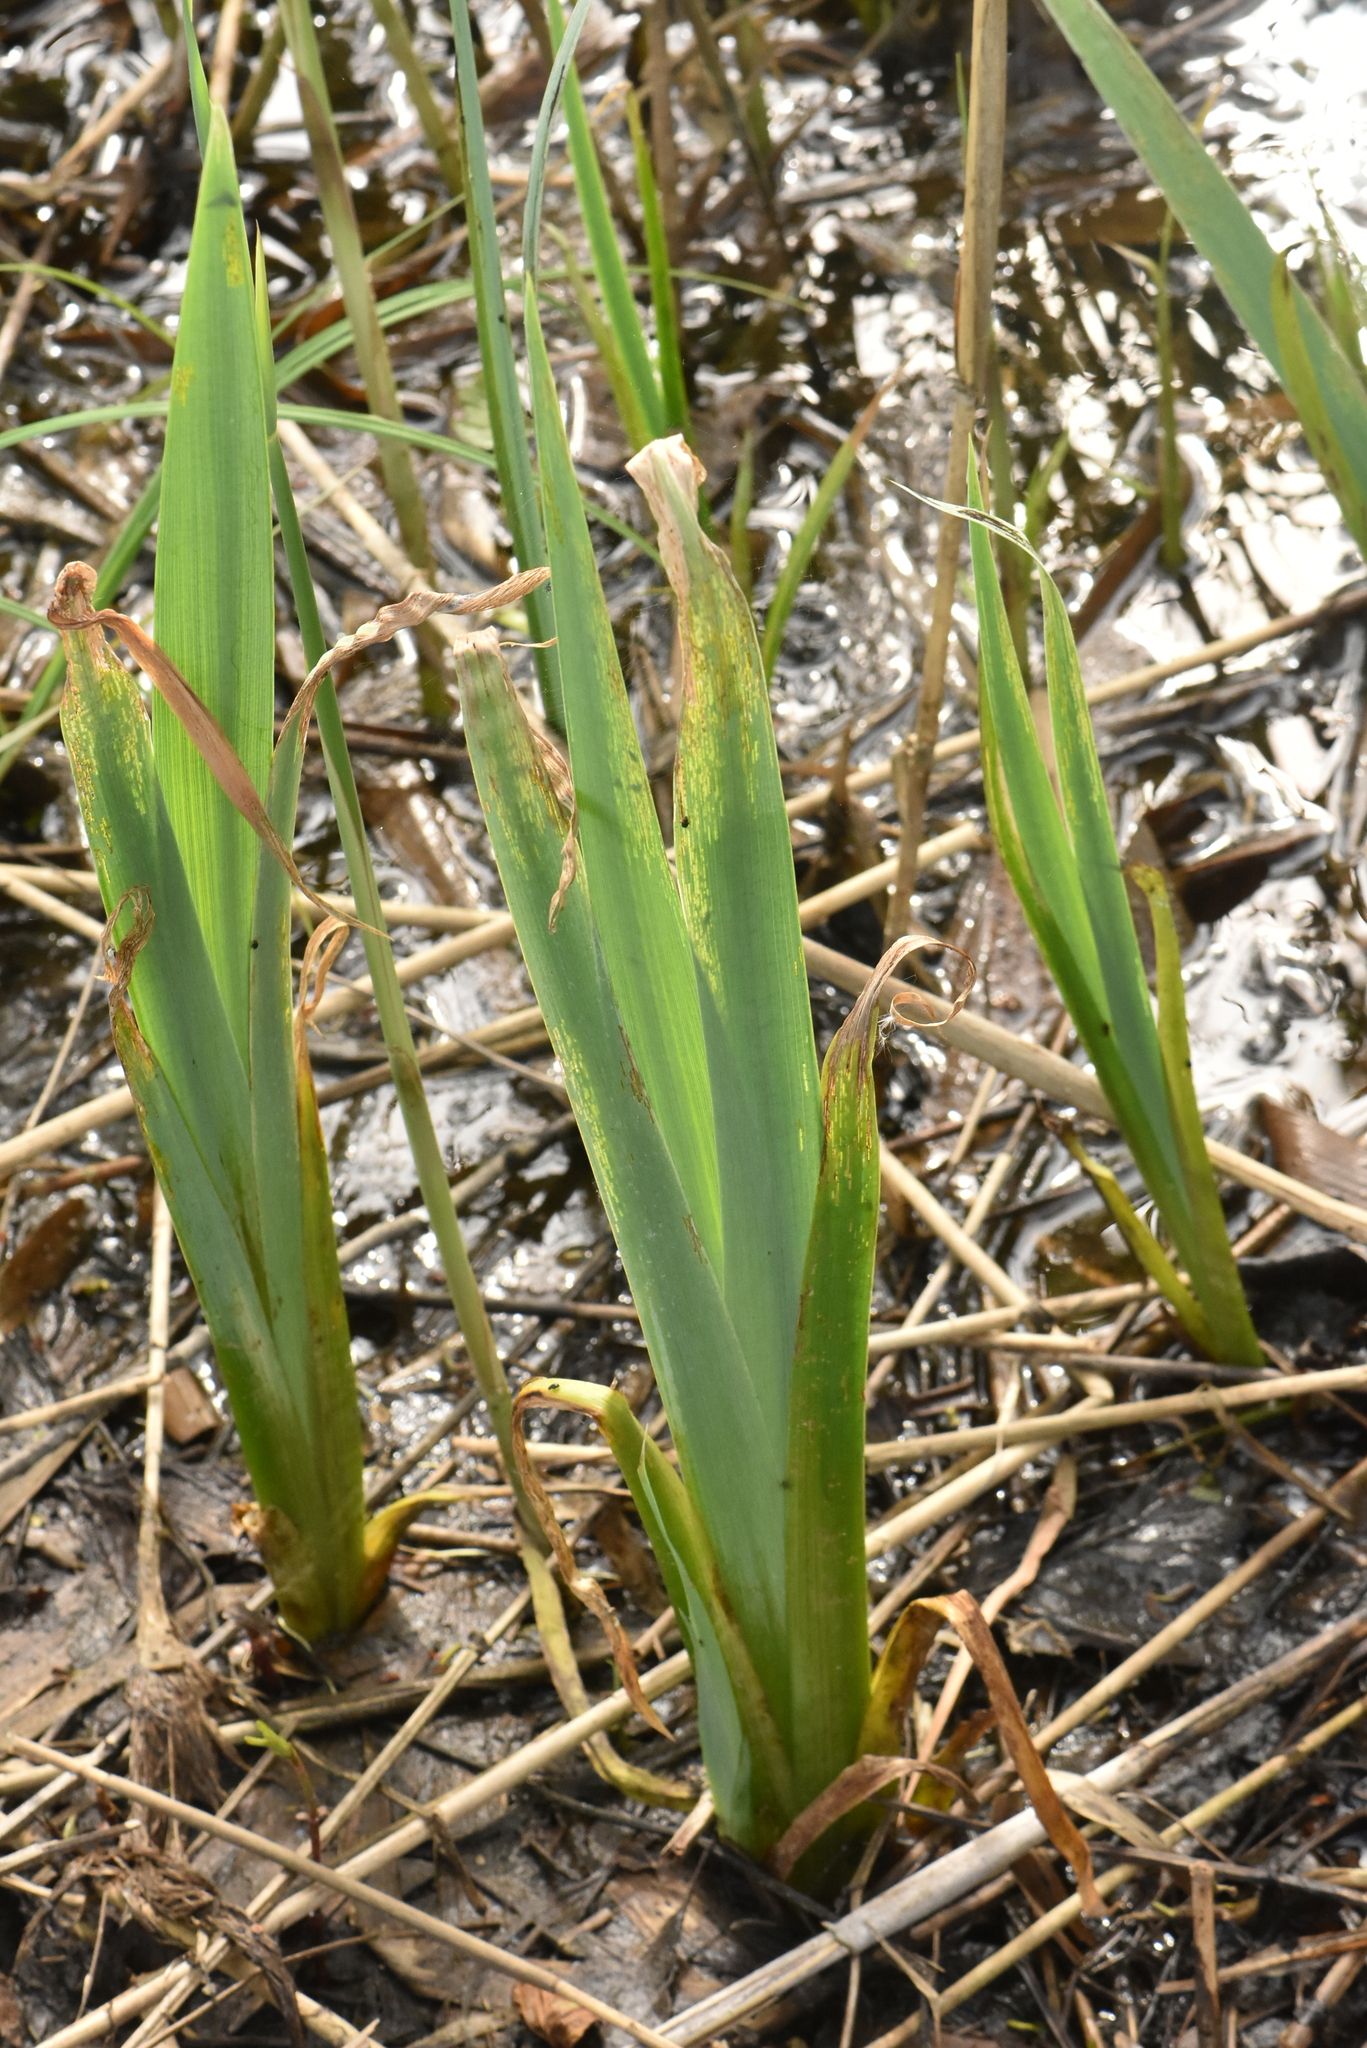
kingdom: Plantae
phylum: Tracheophyta
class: Liliopsida
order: Asparagales
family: Iridaceae
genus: Iris
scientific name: Iris pseudacorus
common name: Yellow flag
